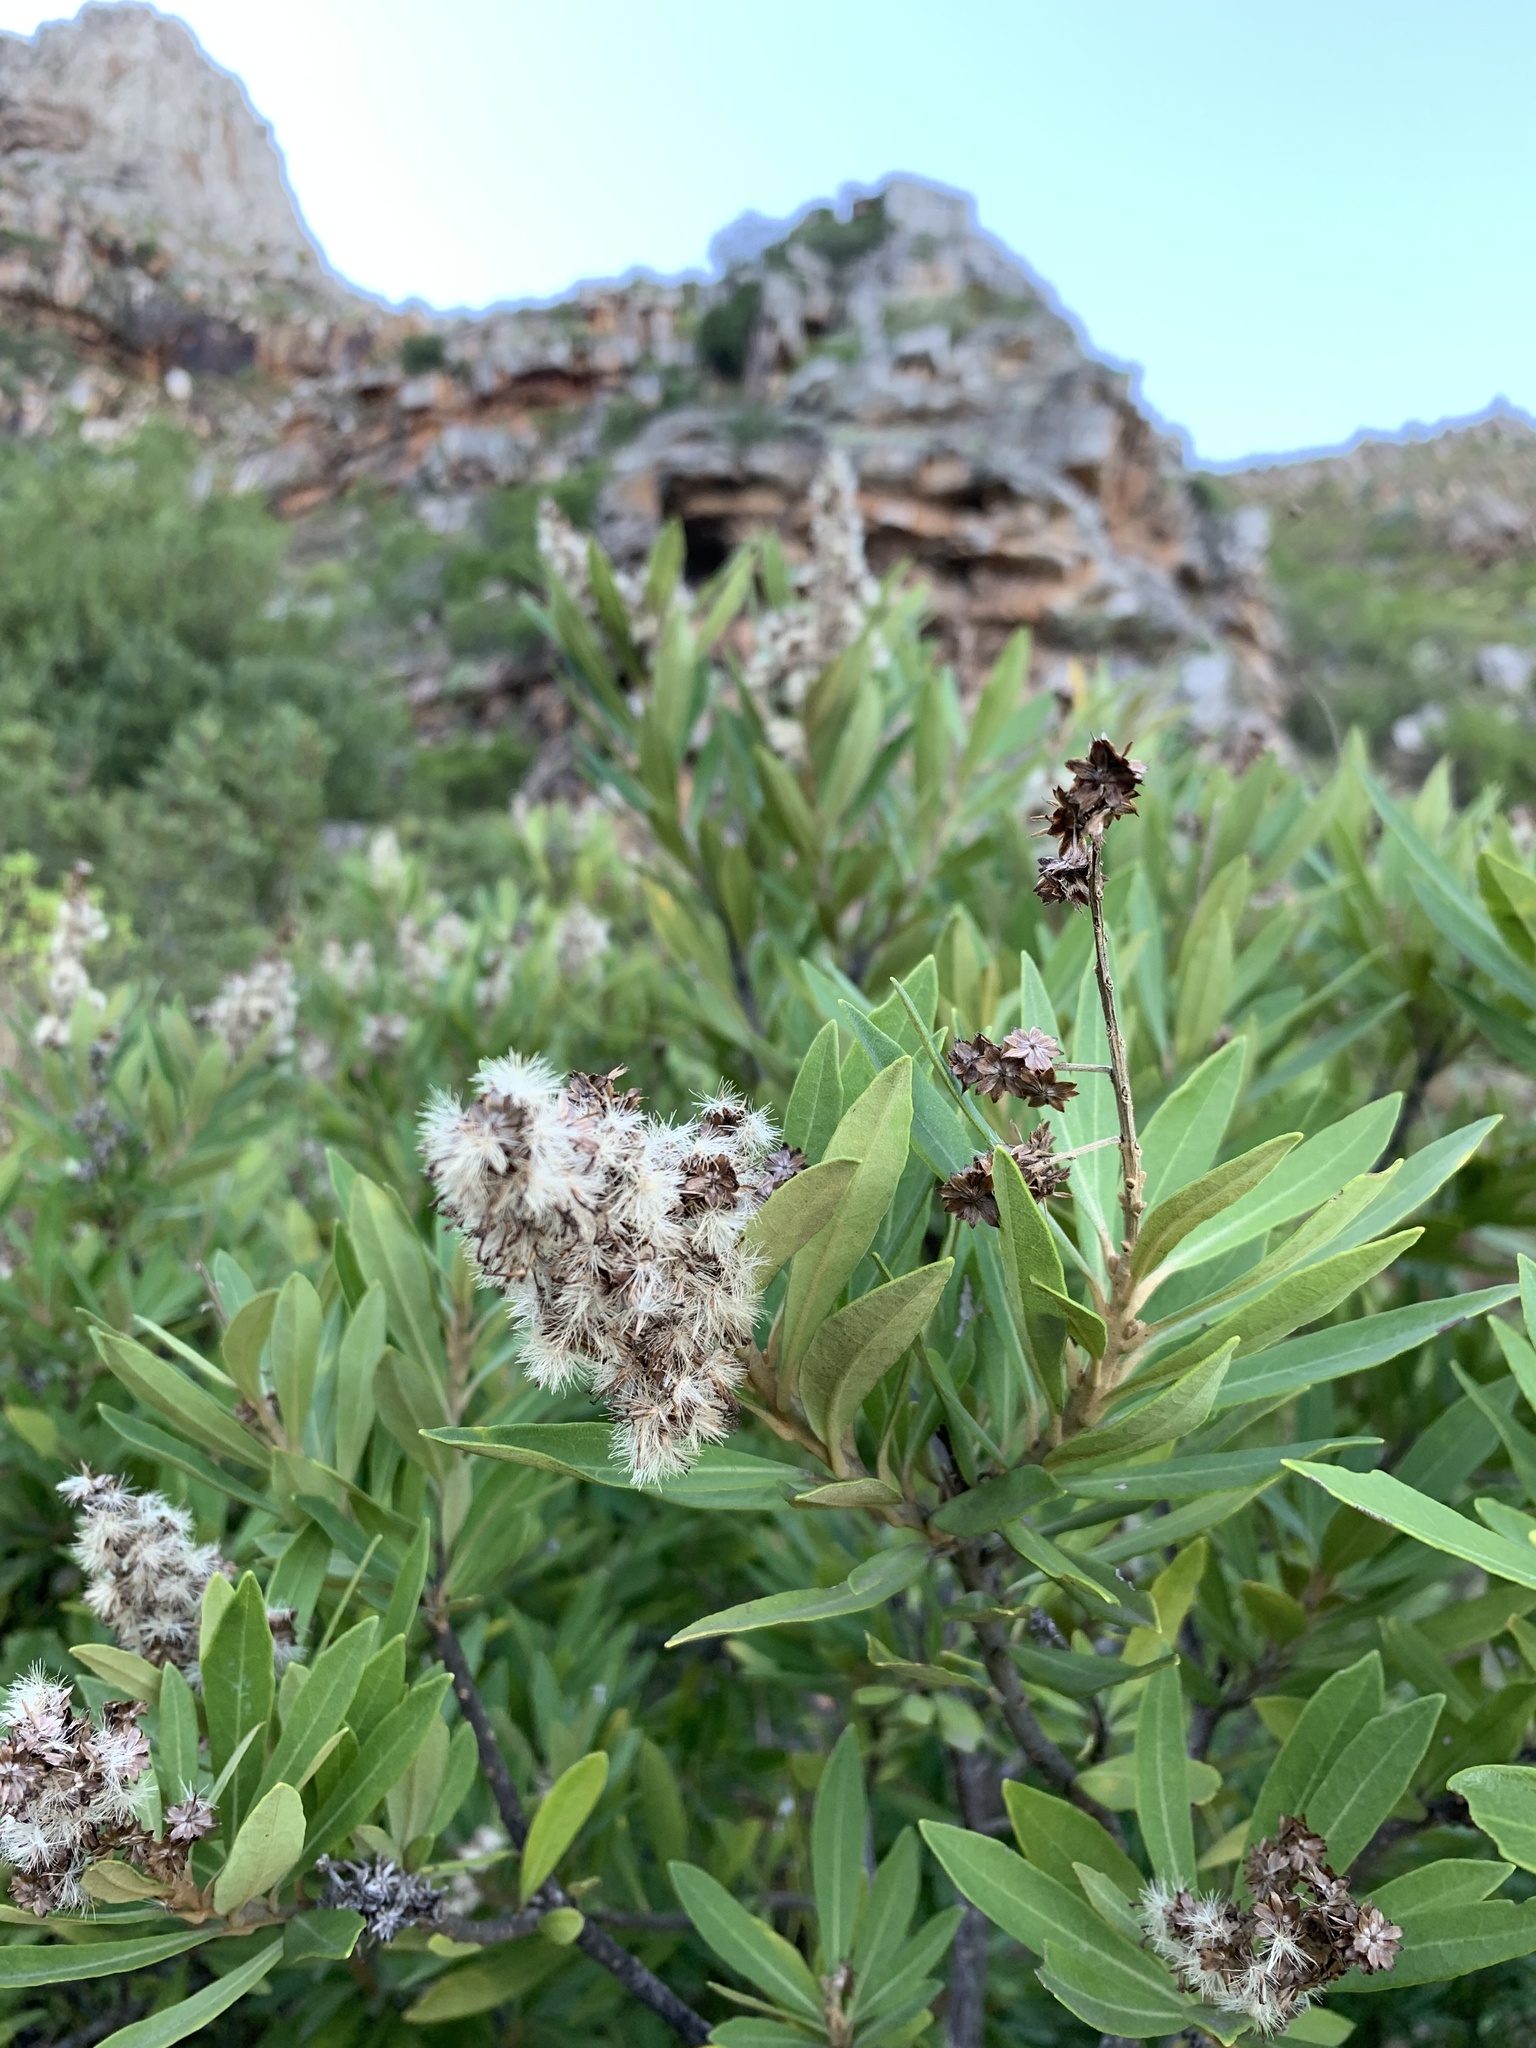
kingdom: Plantae
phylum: Tracheophyta
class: Magnoliopsida
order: Asterales
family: Asteraceae
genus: Brachylaena
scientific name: Brachylaena neriifolia
